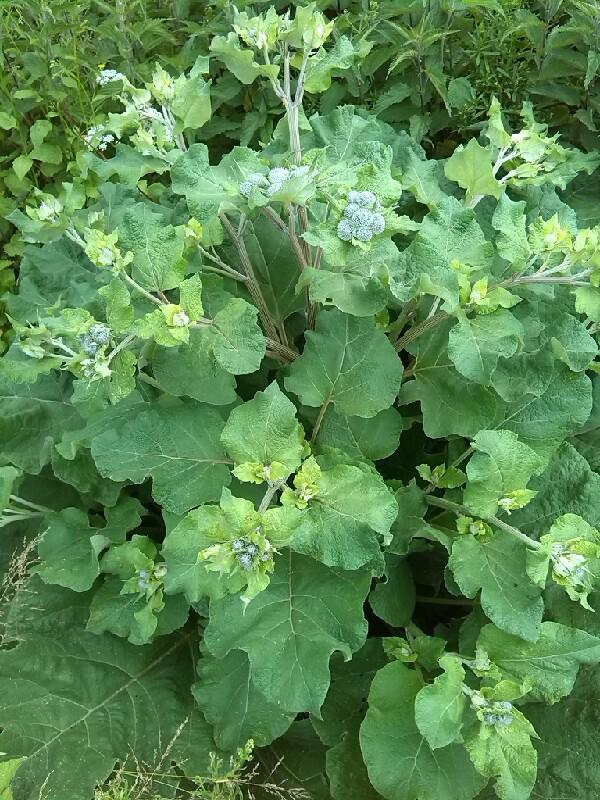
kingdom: Plantae
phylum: Tracheophyta
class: Magnoliopsida
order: Asterales
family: Asteraceae
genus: Arctium
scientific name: Arctium tomentosum
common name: Woolly burdock
